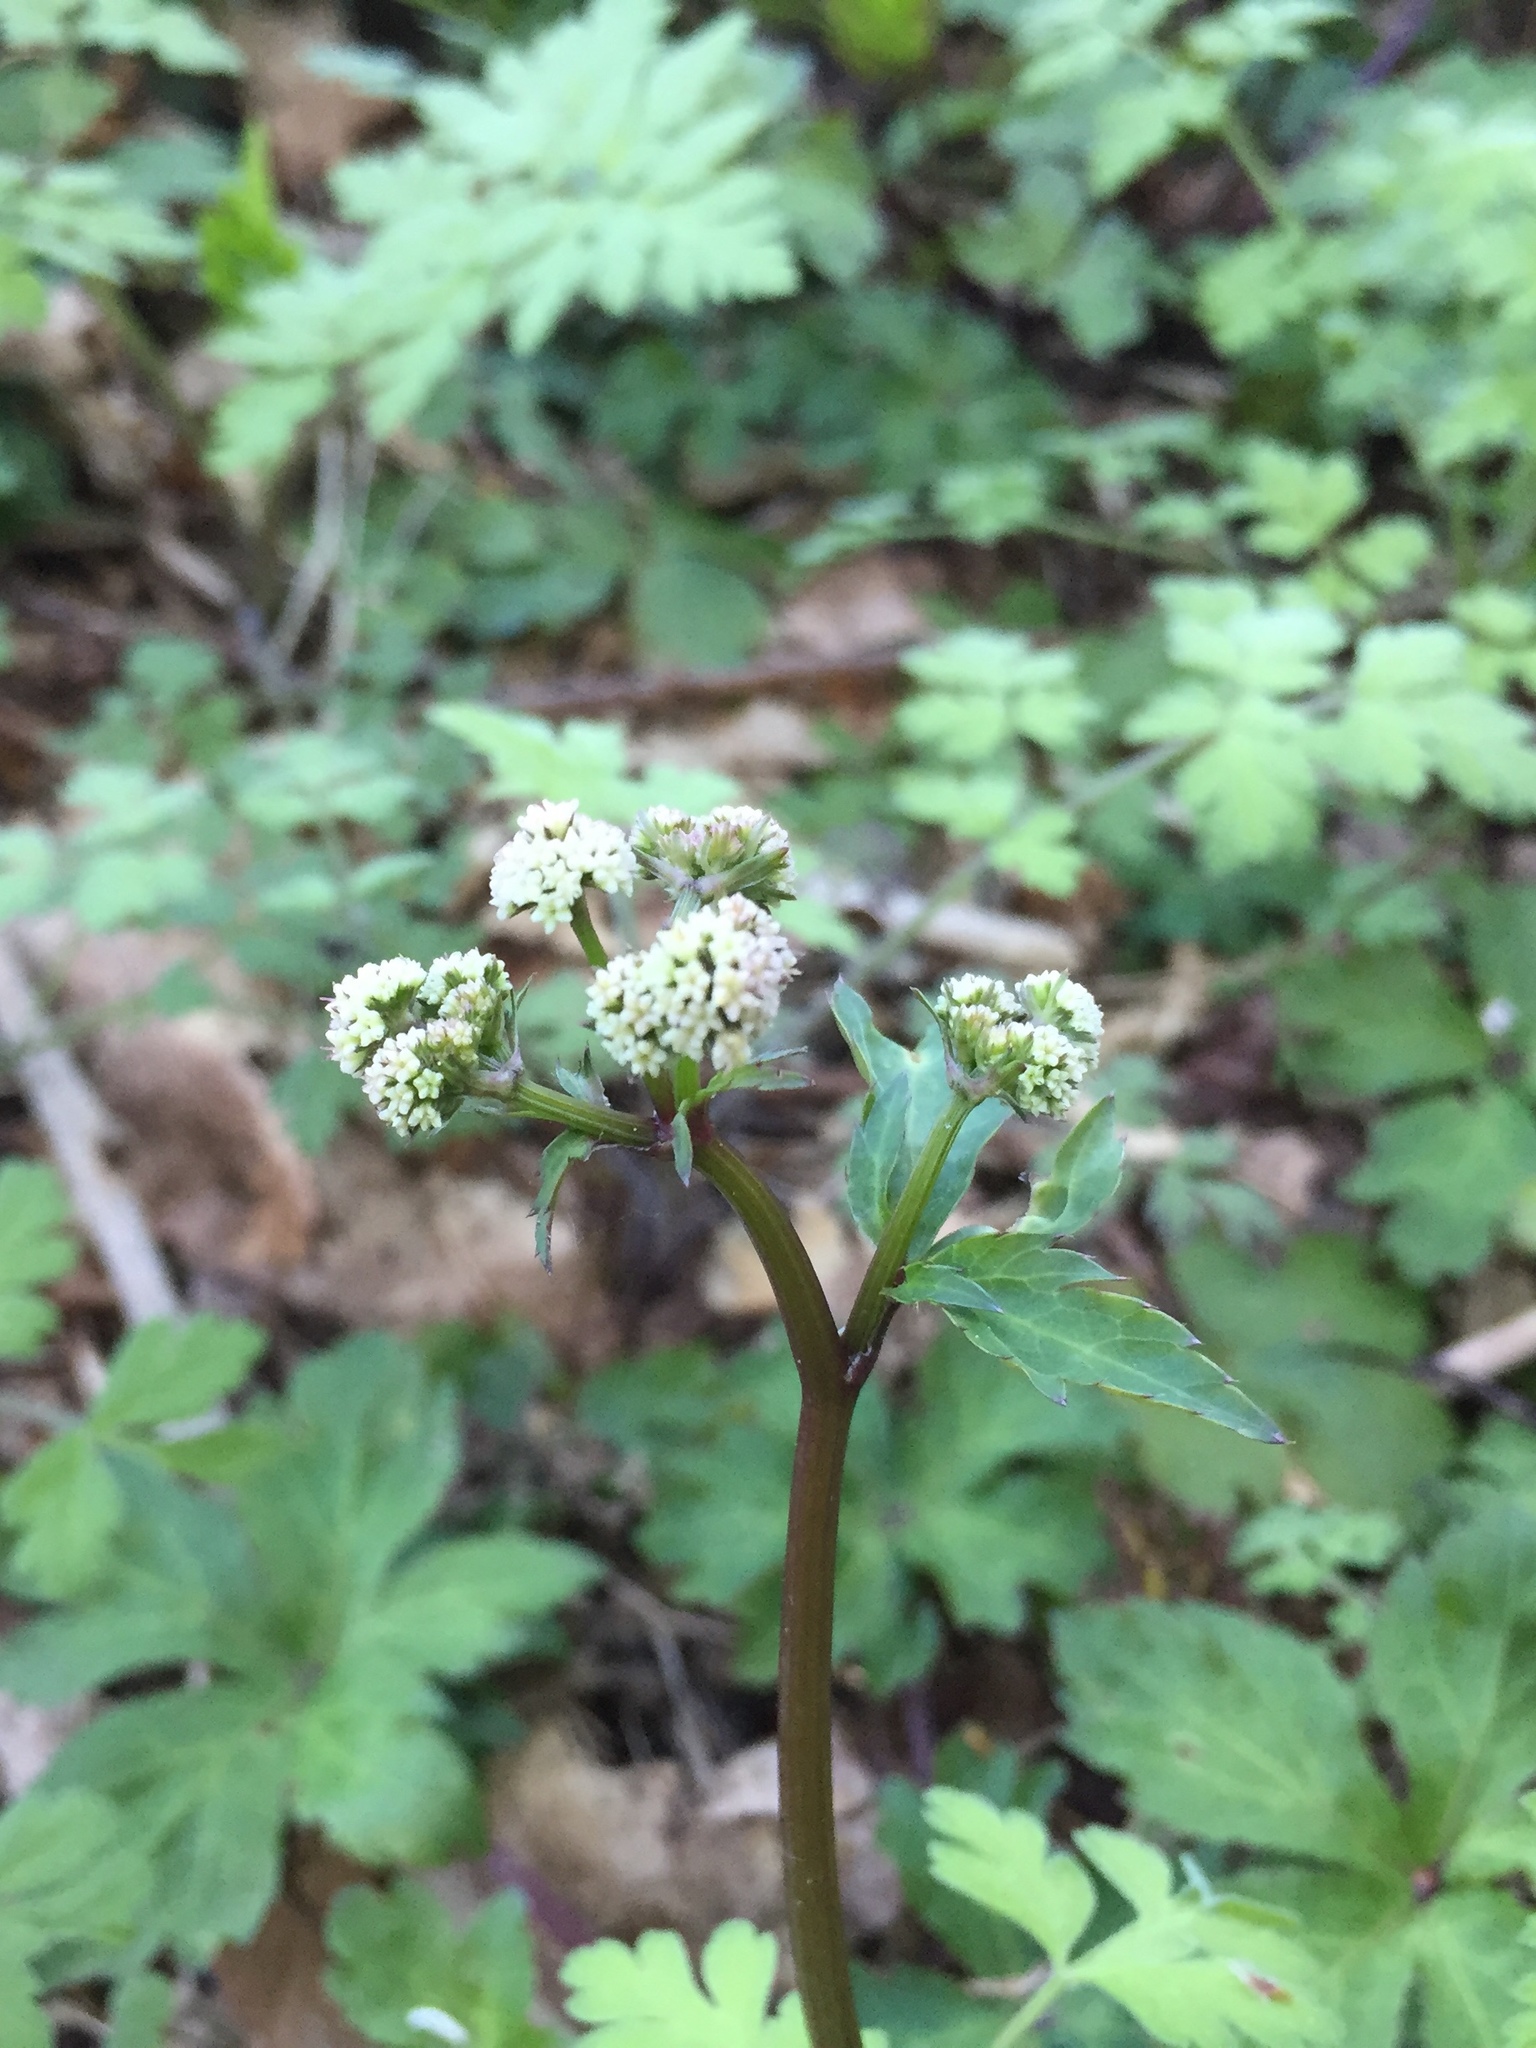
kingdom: Plantae
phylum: Tracheophyta
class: Magnoliopsida
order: Apiales
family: Apiaceae
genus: Sanicula
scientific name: Sanicula europaea
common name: Sanicle
